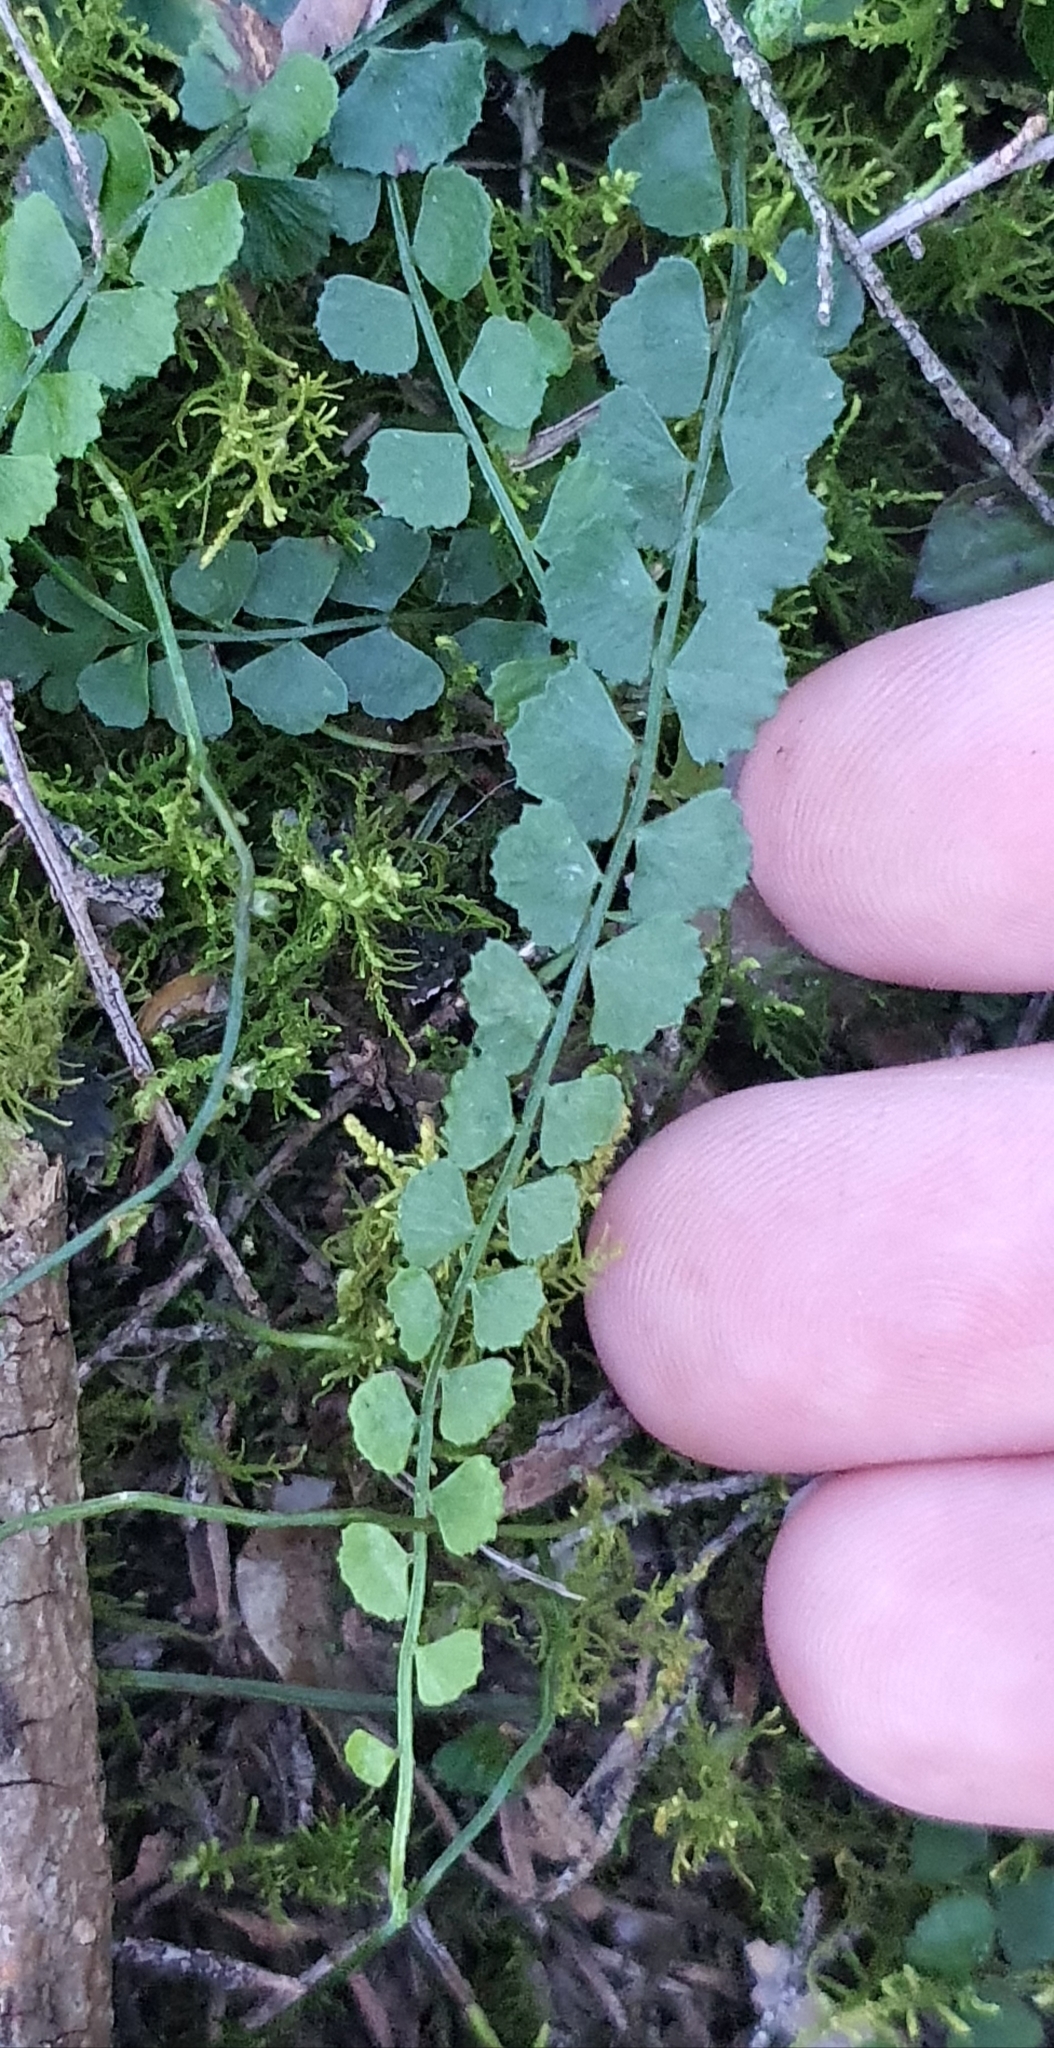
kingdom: Plantae
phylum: Tracheophyta
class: Polypodiopsida
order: Polypodiales
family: Aspleniaceae
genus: Asplenium
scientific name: Asplenium flabellifolium
